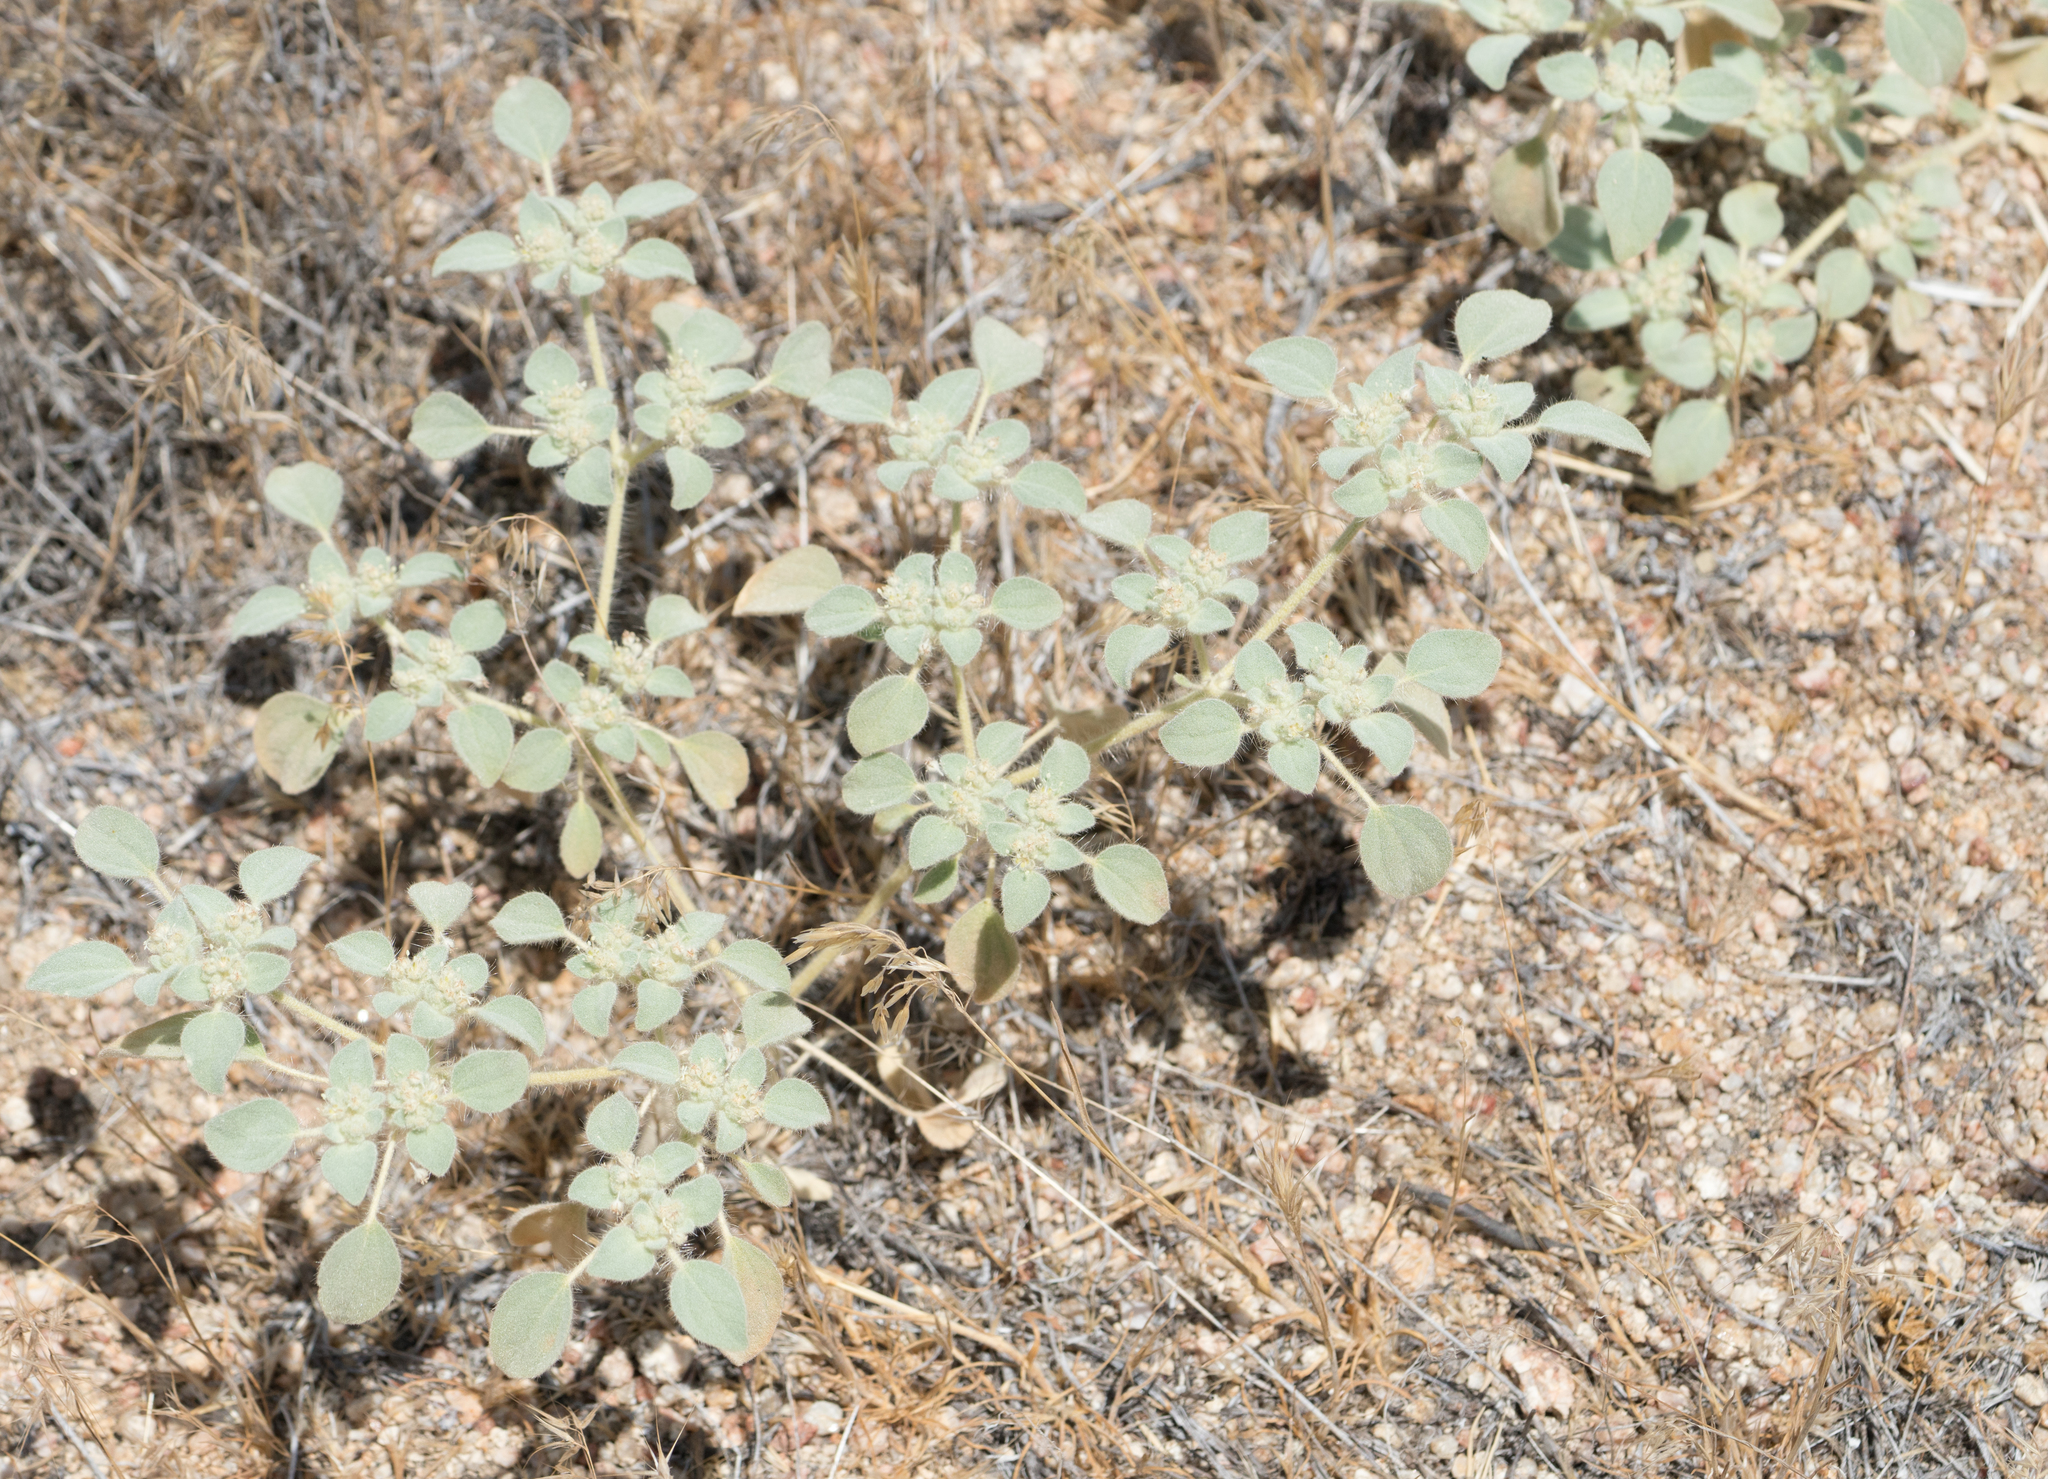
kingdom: Plantae
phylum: Tracheophyta
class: Magnoliopsida
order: Malpighiales
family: Euphorbiaceae
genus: Croton
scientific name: Croton setiger
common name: Dove weed
